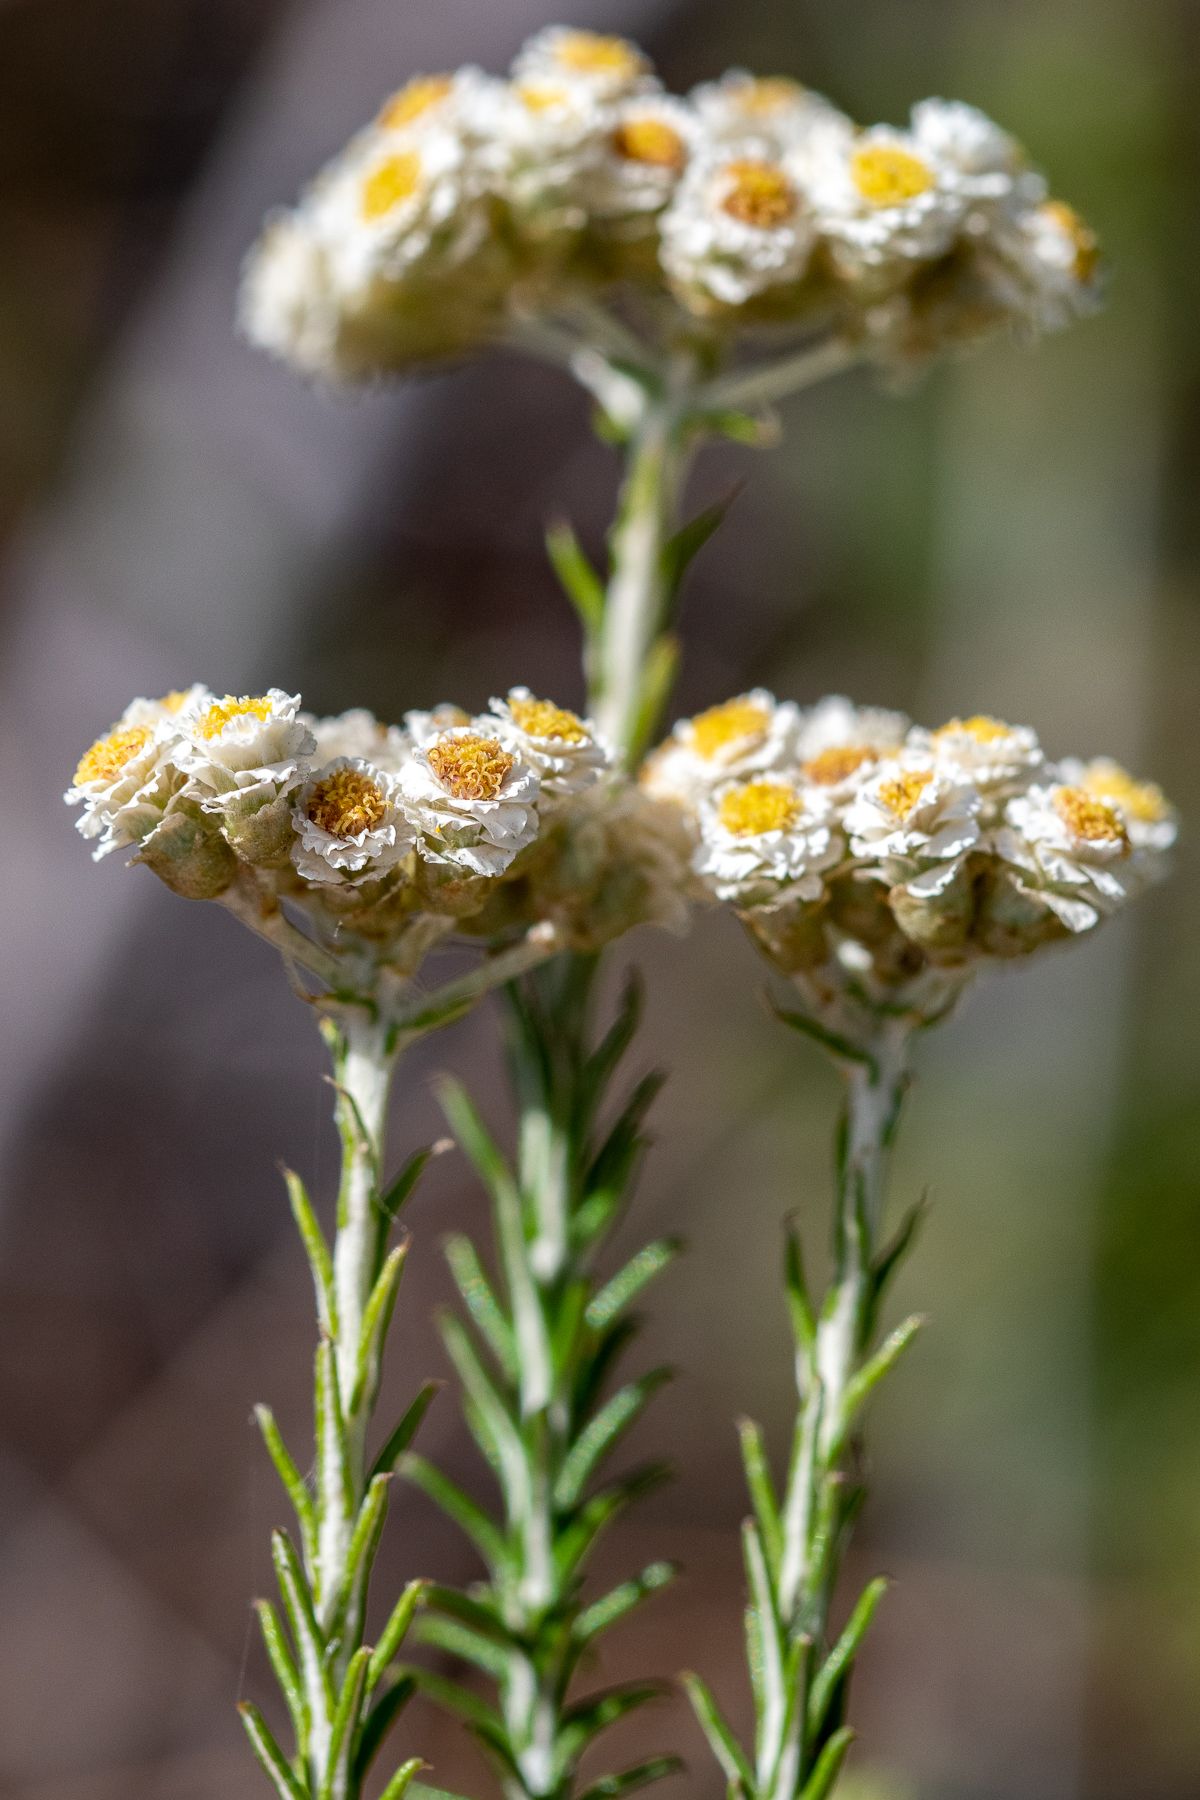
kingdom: Plantae
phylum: Tracheophyta
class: Magnoliopsida
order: Asterales
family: Asteraceae
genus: Helichrysum
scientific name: Helichrysum teretifolium
